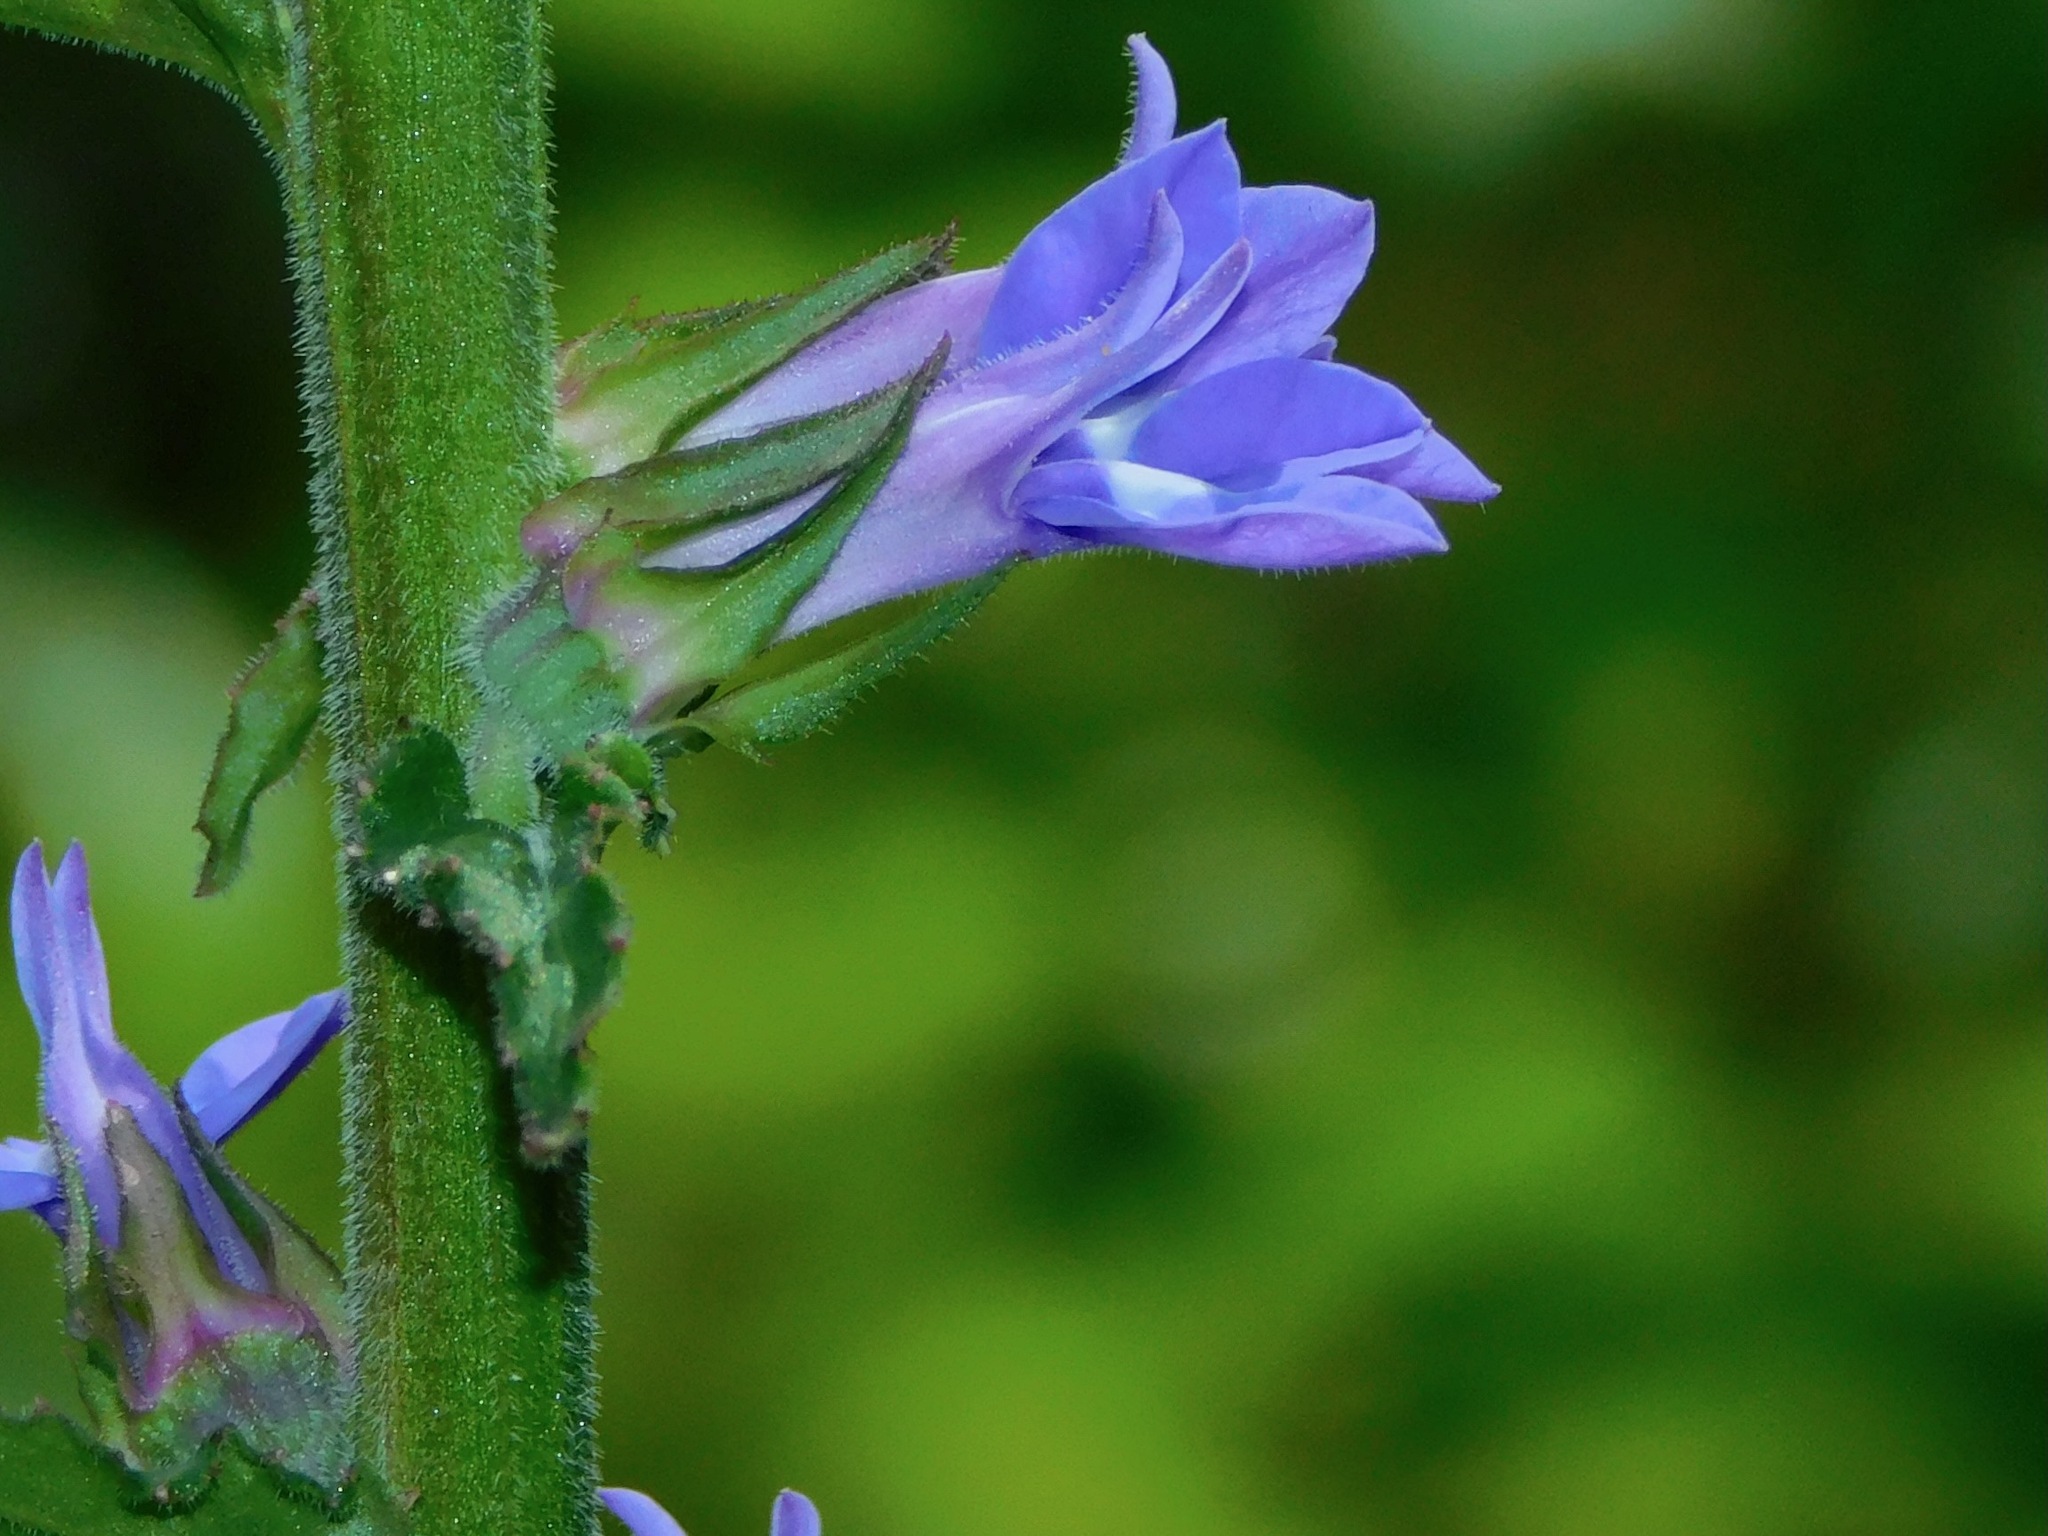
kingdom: Plantae
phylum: Tracheophyta
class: Magnoliopsida
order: Asterales
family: Campanulaceae
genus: Lobelia
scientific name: Lobelia puberula
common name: Purple dewdrop
